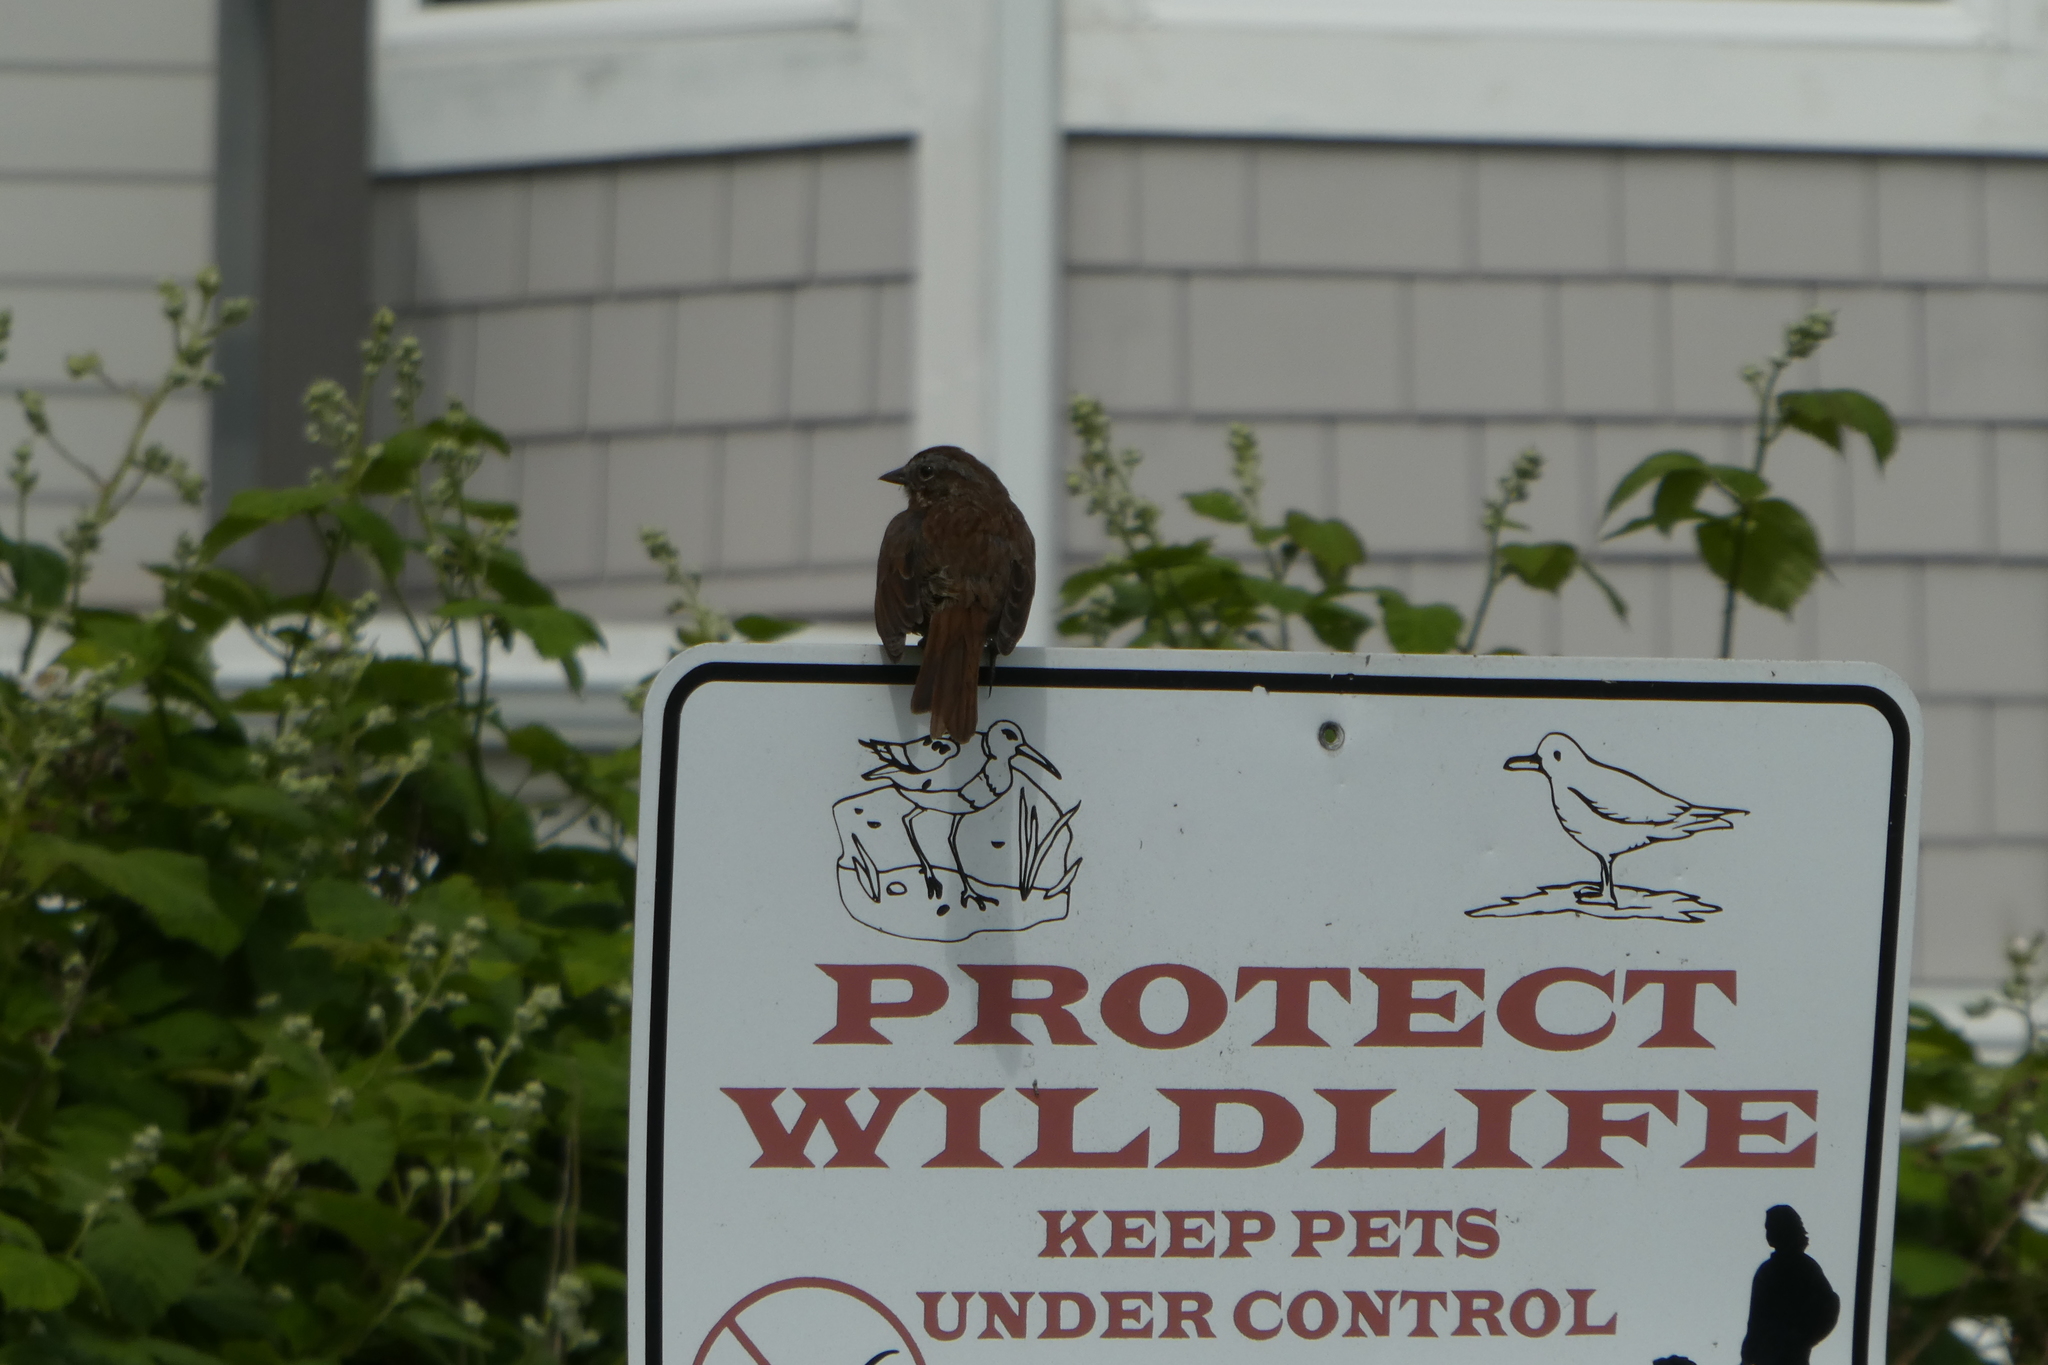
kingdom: Animalia
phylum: Chordata
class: Aves
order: Passeriformes
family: Passerellidae
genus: Melospiza
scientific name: Melospiza melodia
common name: Song sparrow
